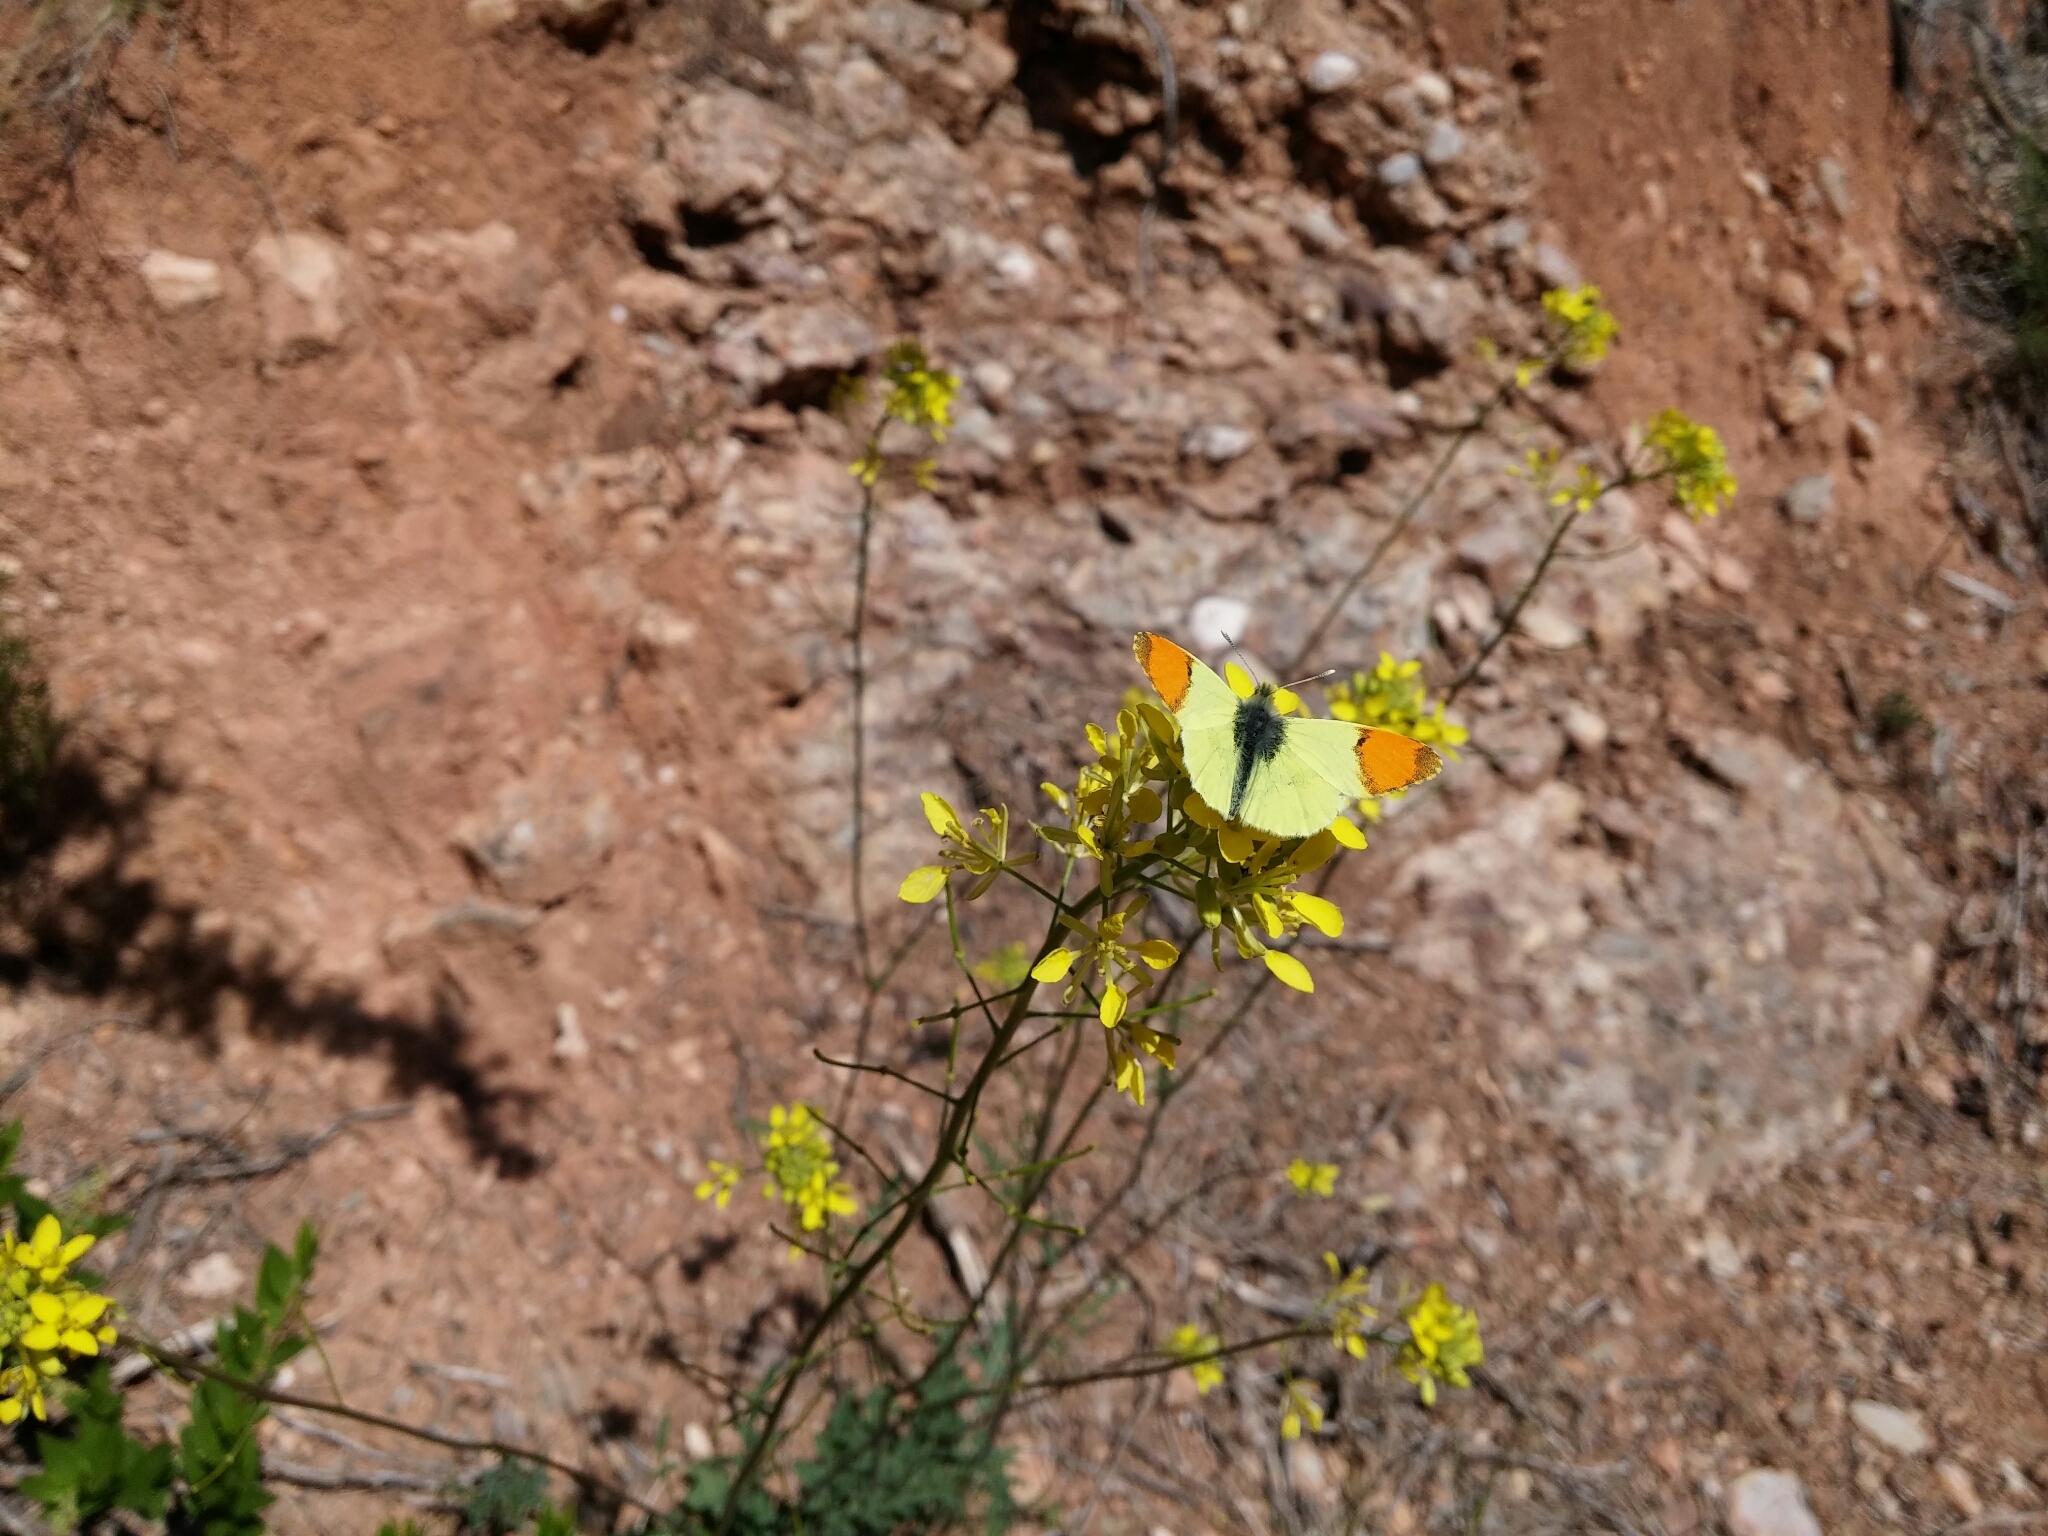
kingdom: Animalia
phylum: Arthropoda
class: Insecta
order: Lepidoptera
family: Pieridae
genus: Anthocharis
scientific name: Anthocharis euphenoides
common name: Provence orange-tip
